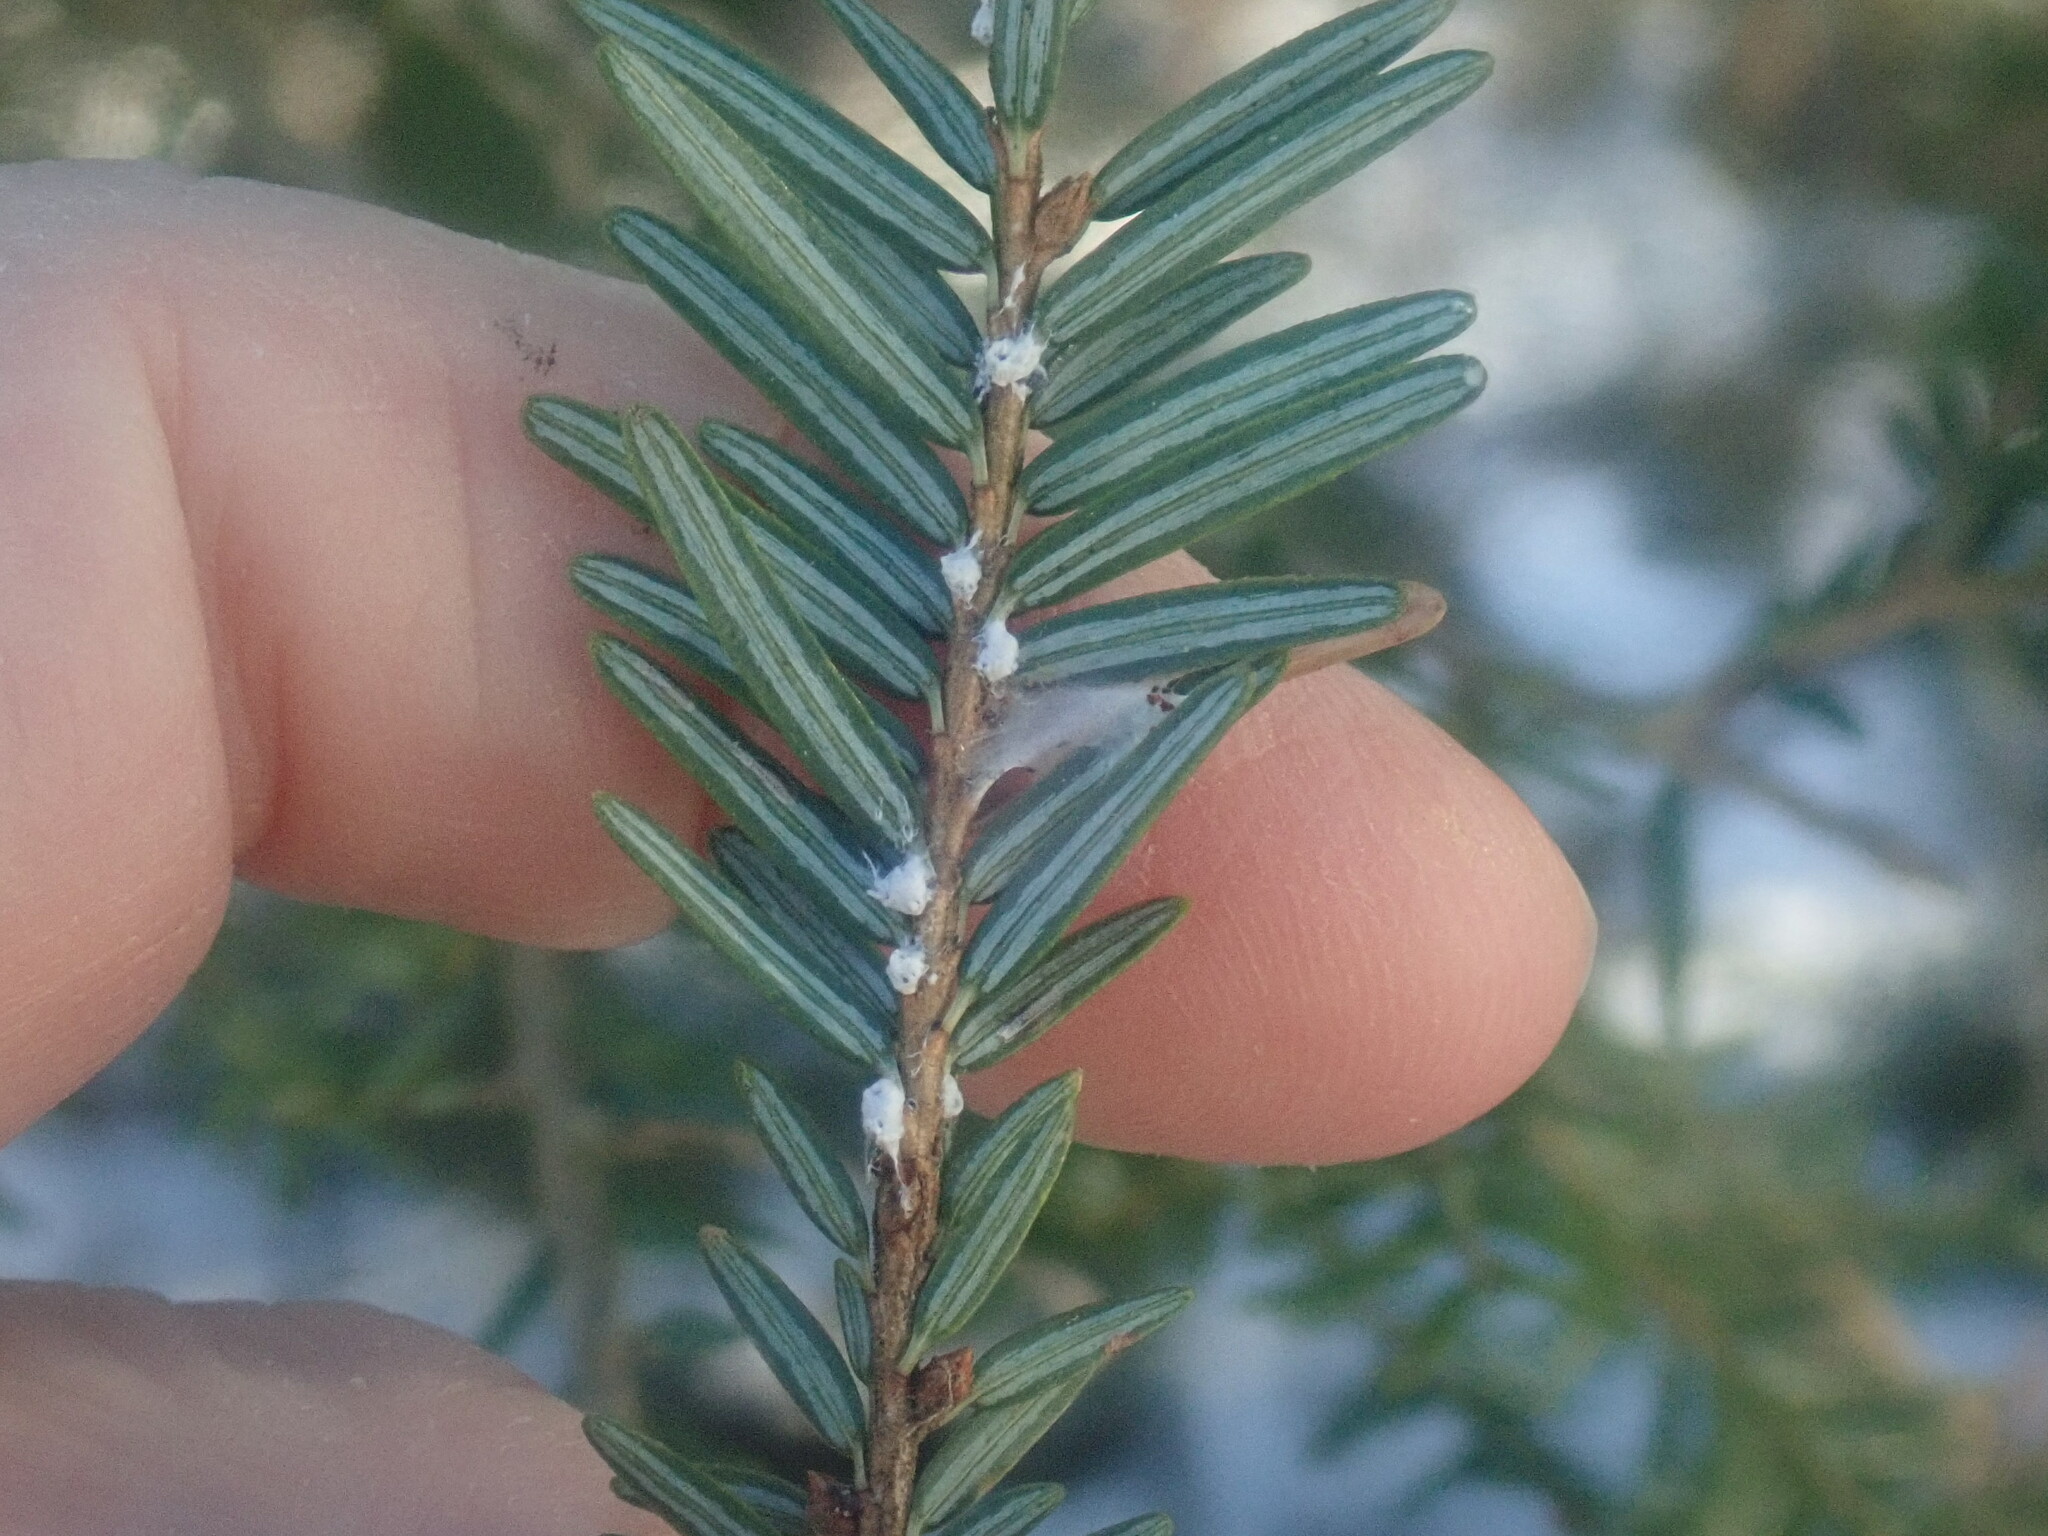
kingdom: Animalia
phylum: Arthropoda
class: Insecta
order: Hemiptera
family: Adelgidae
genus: Adelges
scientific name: Adelges tsugae
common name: Hemlock woolly adelgid
